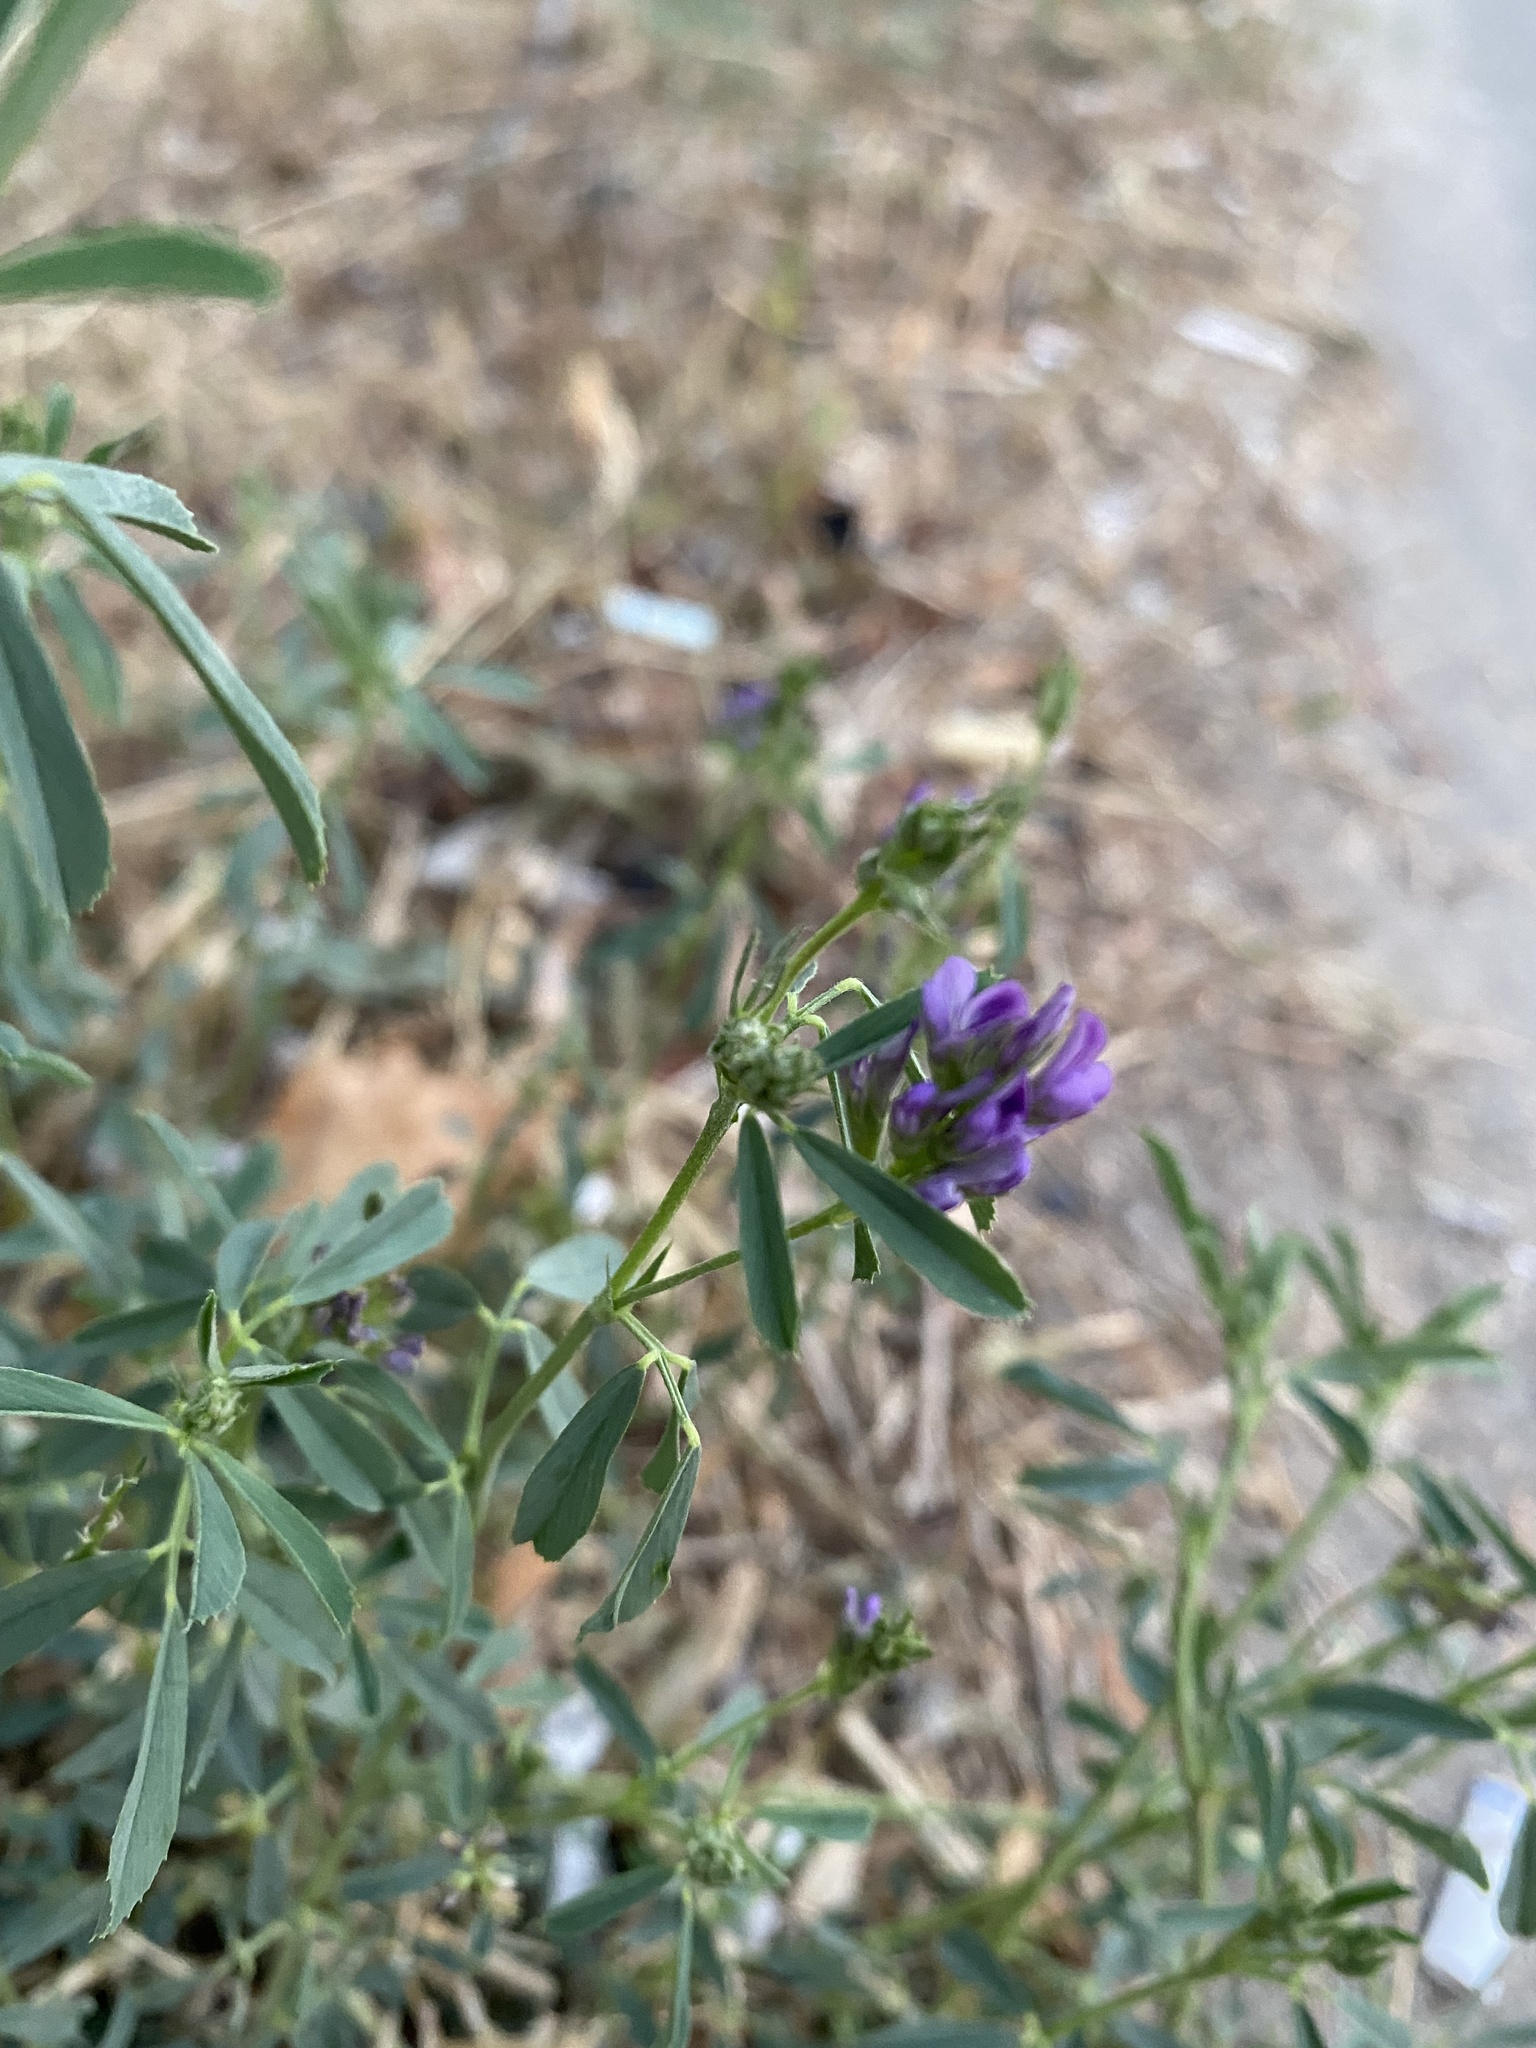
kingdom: Plantae
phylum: Tracheophyta
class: Magnoliopsida
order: Fabales
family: Fabaceae
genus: Medicago
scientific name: Medicago sativa
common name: Alfalfa
